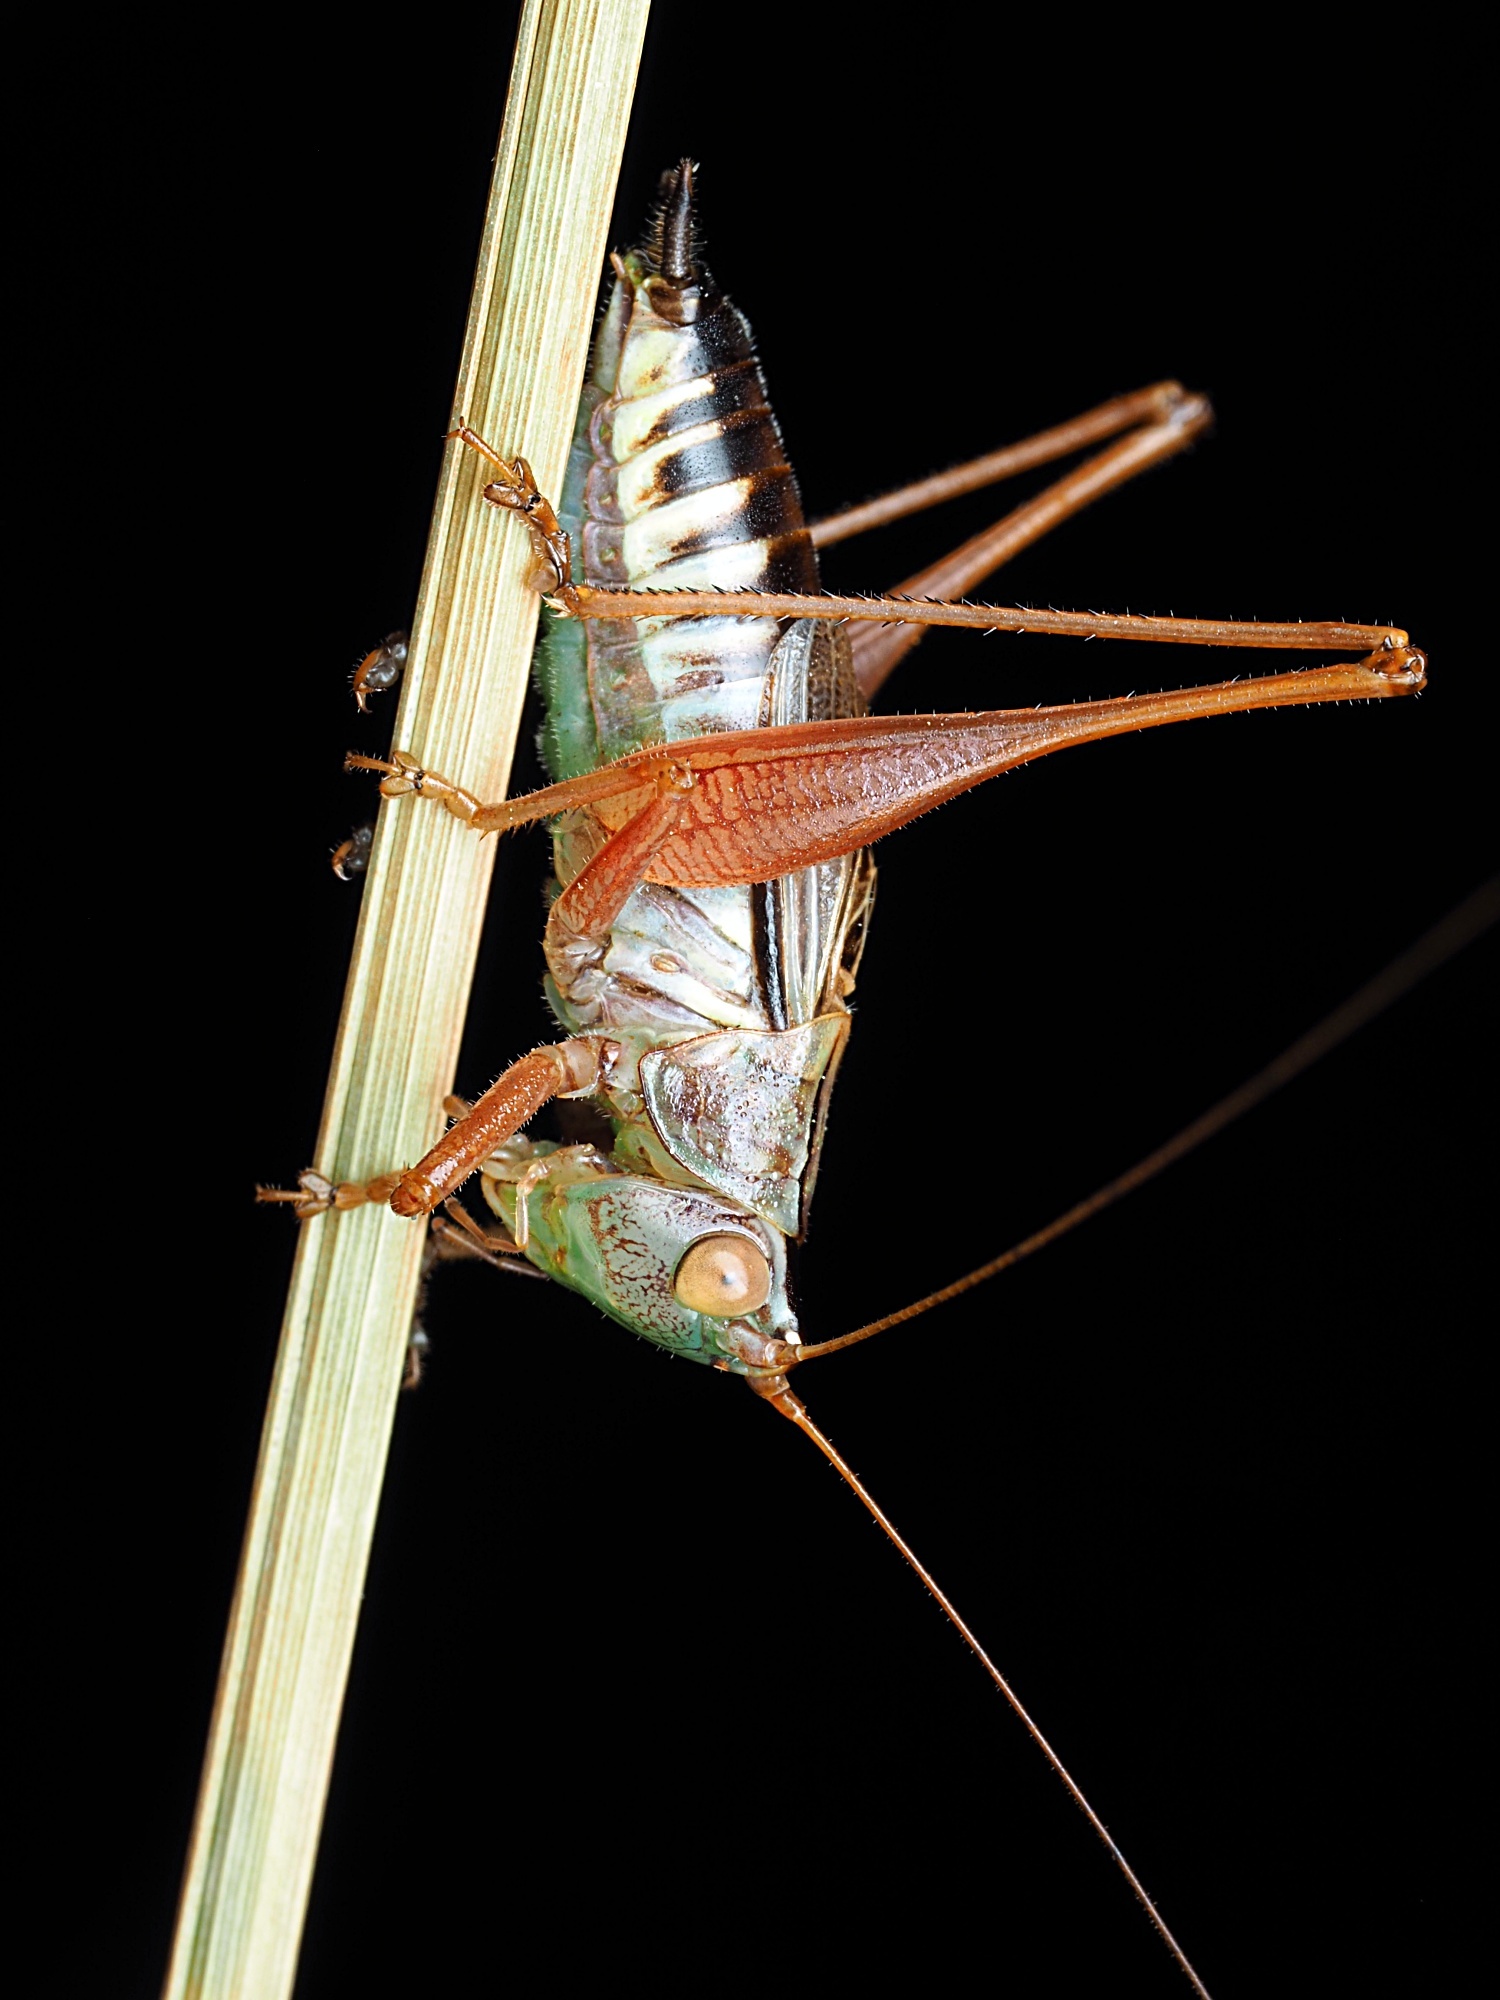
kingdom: Animalia
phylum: Arthropoda
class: Insecta
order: Orthoptera
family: Tettigoniidae
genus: Conocephalus
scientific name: Conocephalus semivittatus
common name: Blackish meadow katydid
